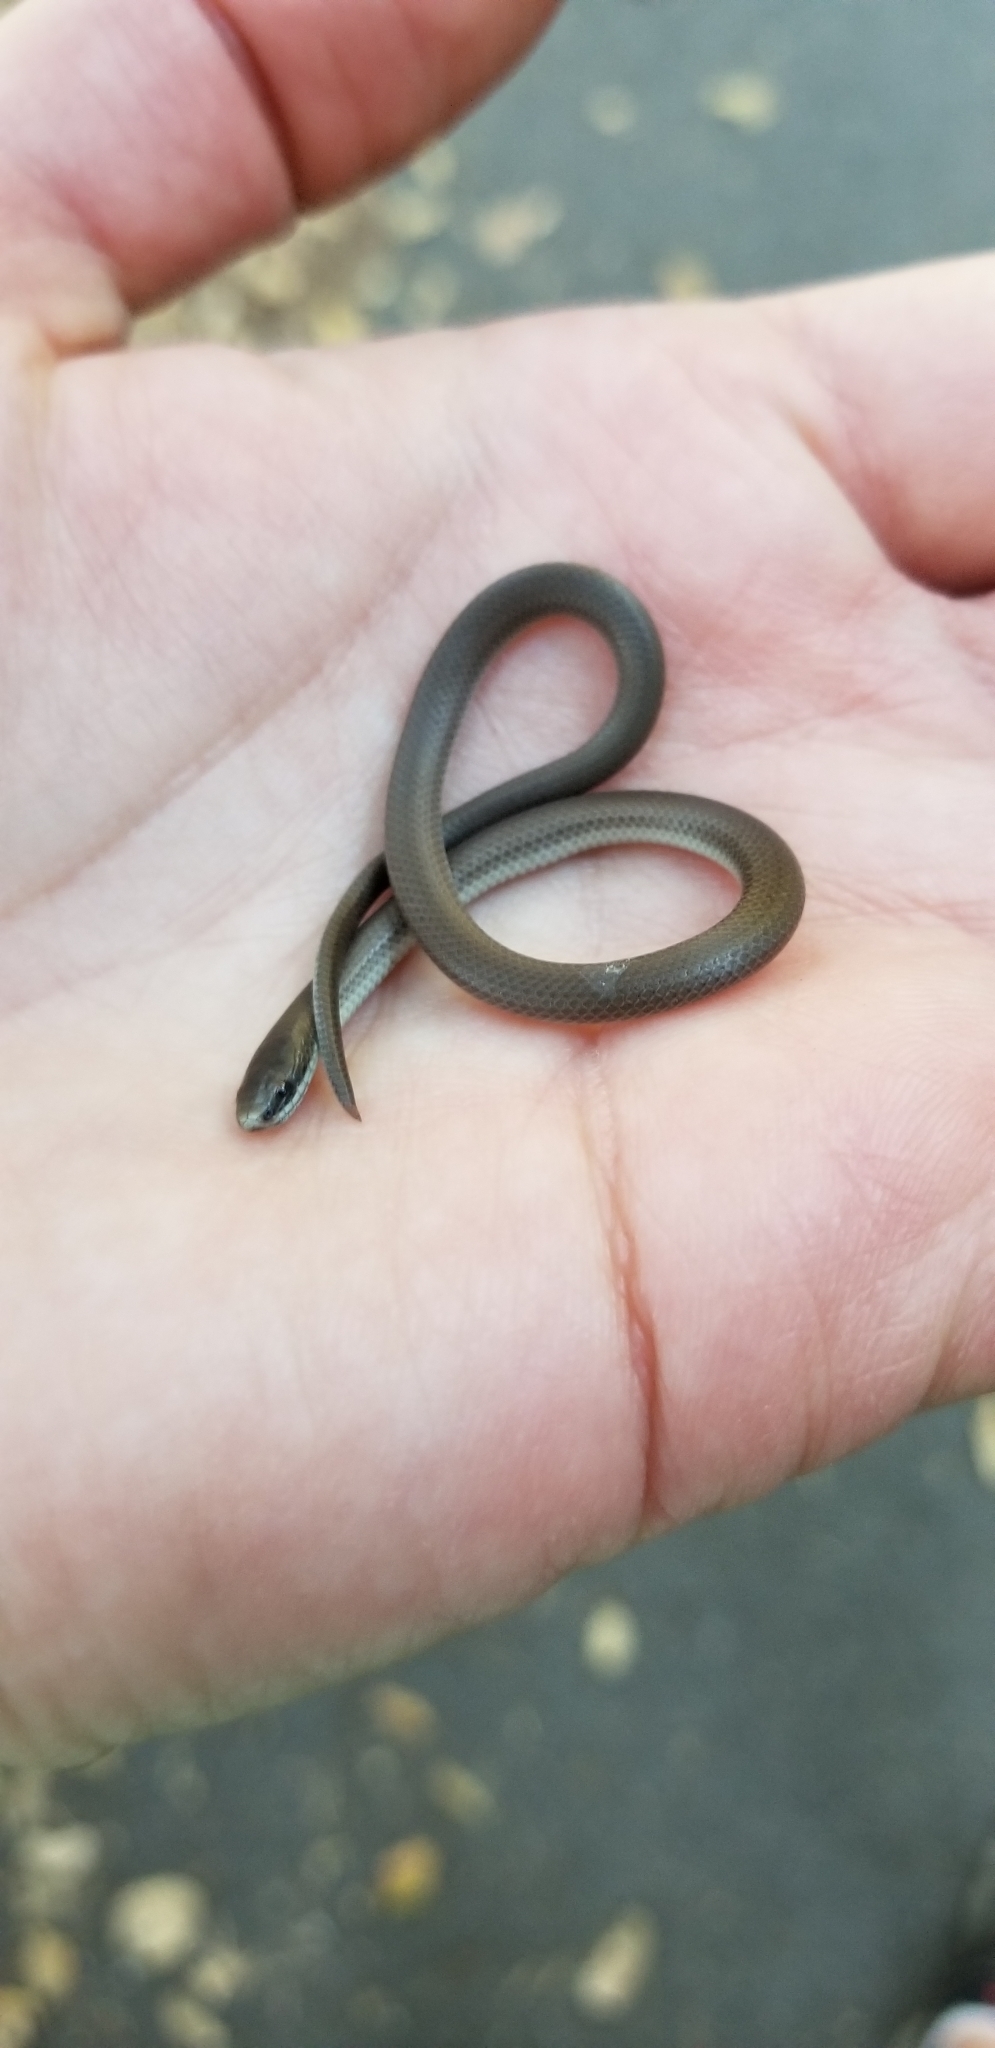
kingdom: Animalia
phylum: Chordata
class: Squamata
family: Colubridae
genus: Contia
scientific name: Contia longicaudae
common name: Forest sharp-tailed snake
